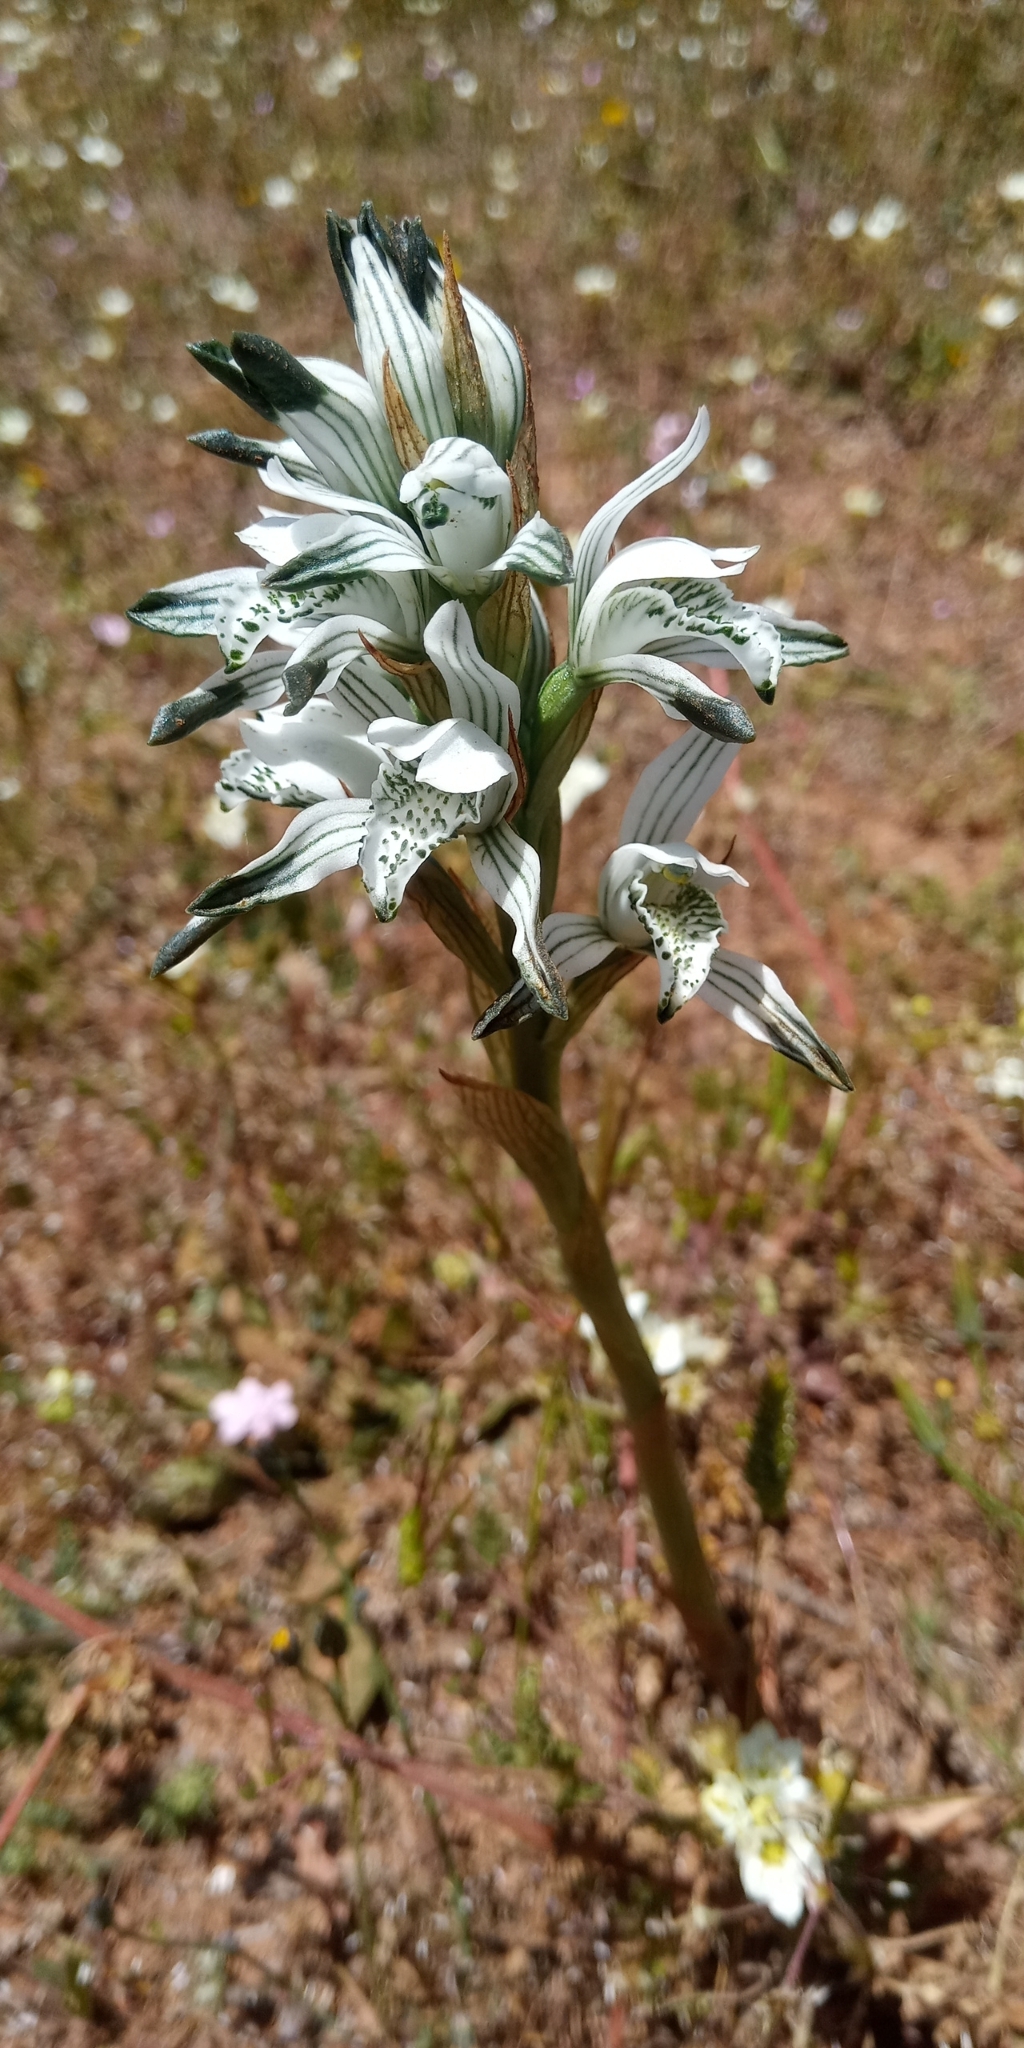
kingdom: Plantae
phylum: Tracheophyta
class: Liliopsida
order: Asparagales
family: Orchidaceae
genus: Chloraea
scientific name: Chloraea multiflora
